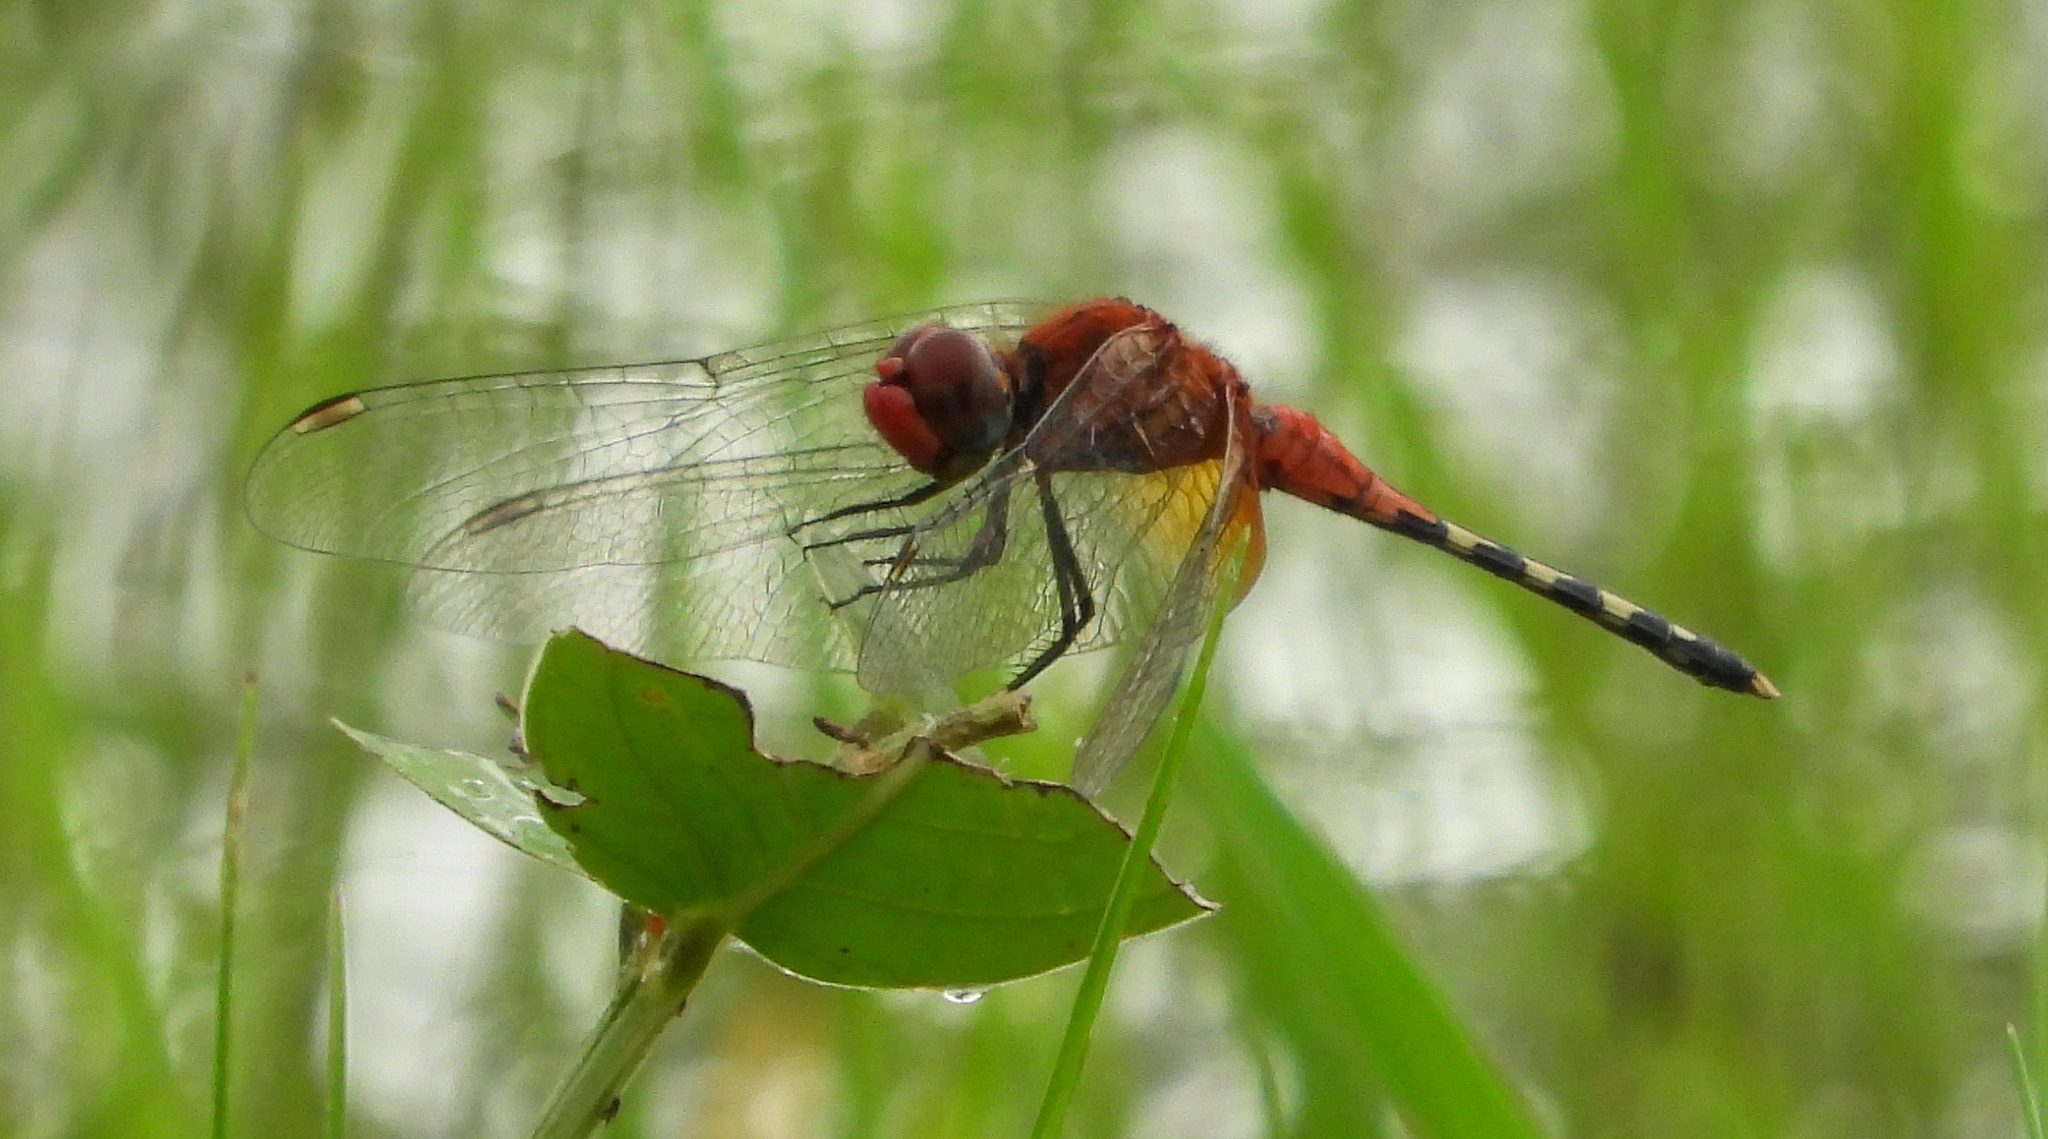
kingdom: Animalia
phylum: Arthropoda
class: Insecta
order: Odonata
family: Libellulidae
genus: Diplacodes
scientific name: Diplacodes luminans
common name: Barbet percher
